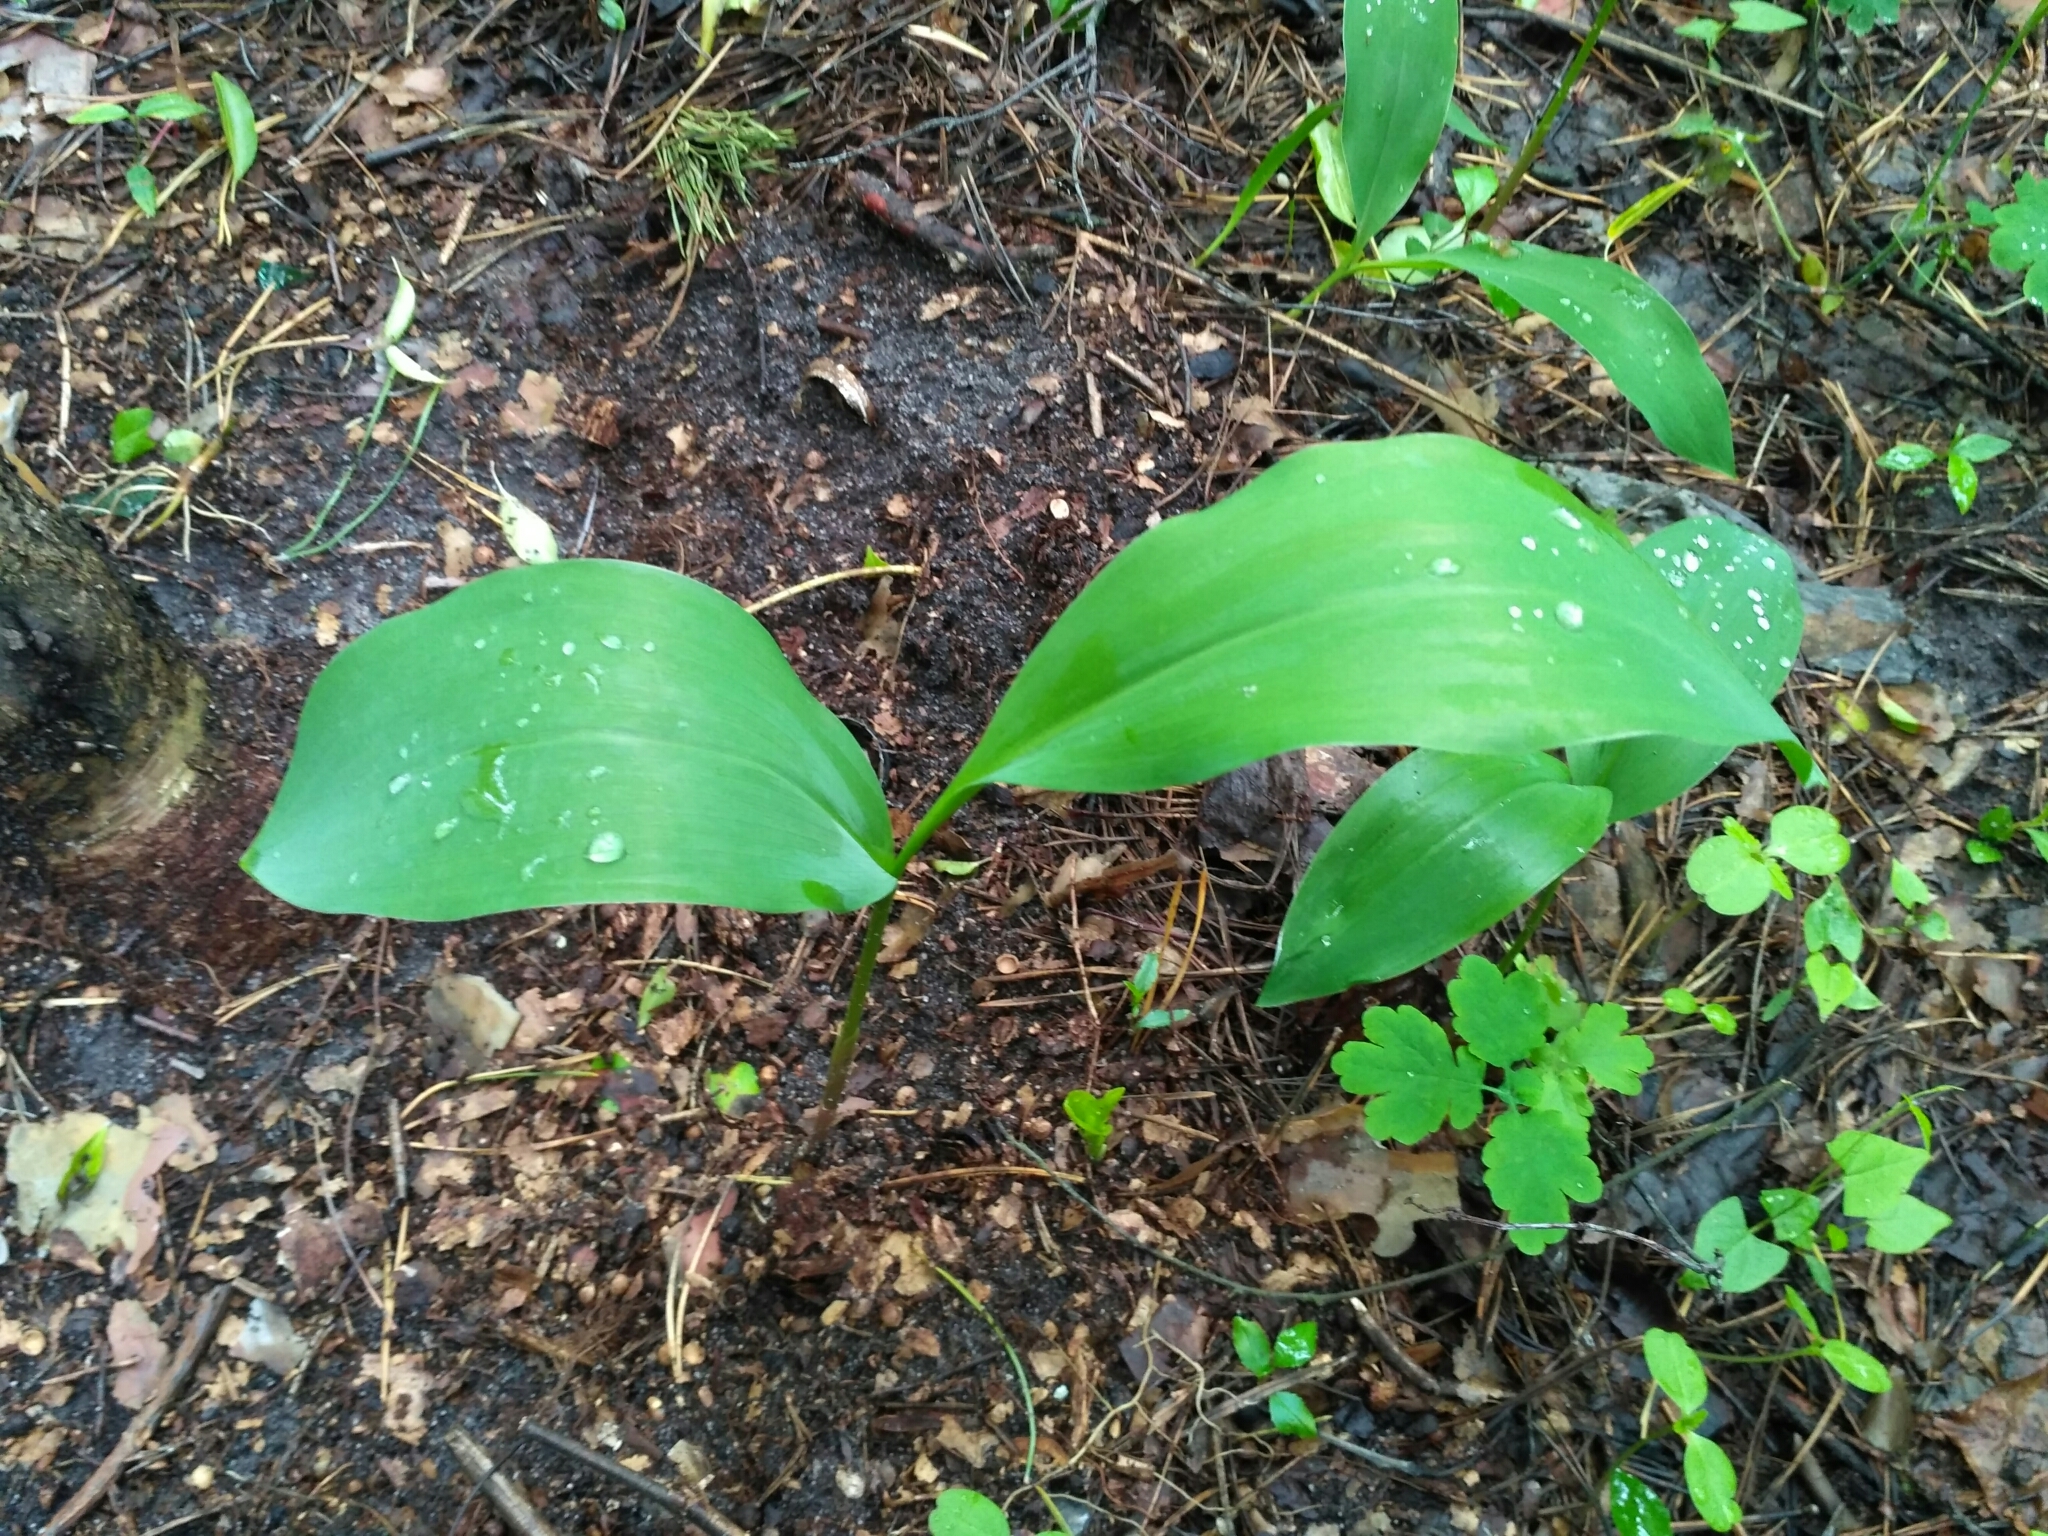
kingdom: Plantae
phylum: Tracheophyta
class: Liliopsida
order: Asparagales
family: Asparagaceae
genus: Convallaria
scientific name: Convallaria majalis
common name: Lily-of-the-valley
